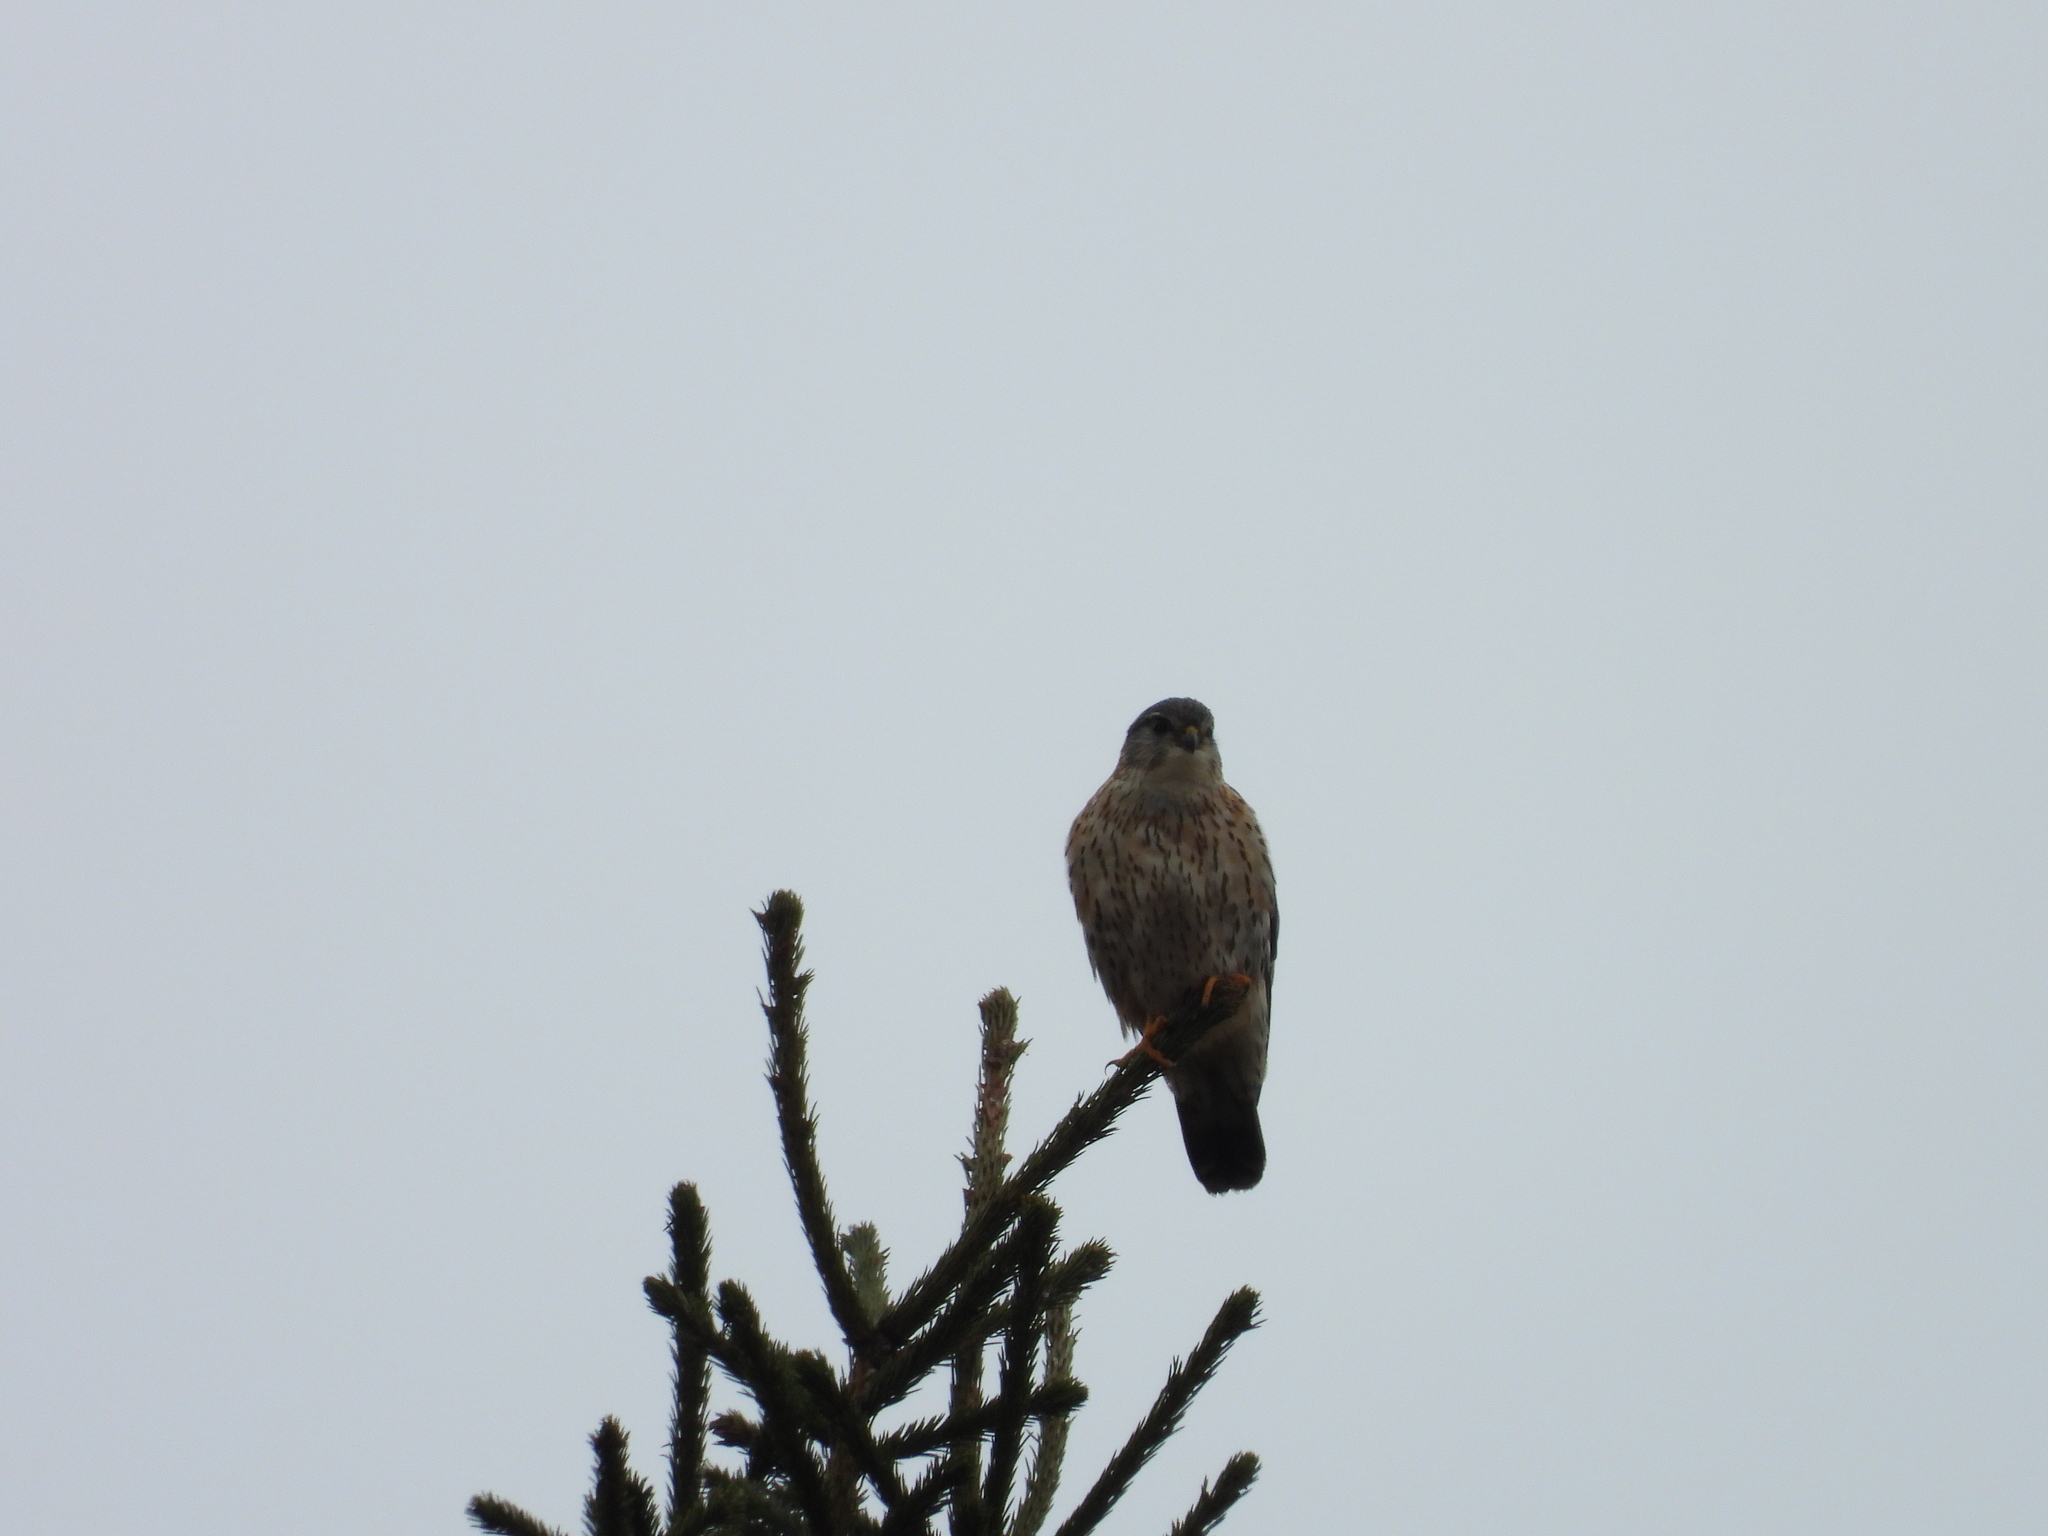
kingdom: Animalia
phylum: Chordata
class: Aves
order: Falconiformes
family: Falconidae
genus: Falco
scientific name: Falco columbarius
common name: Merlin
